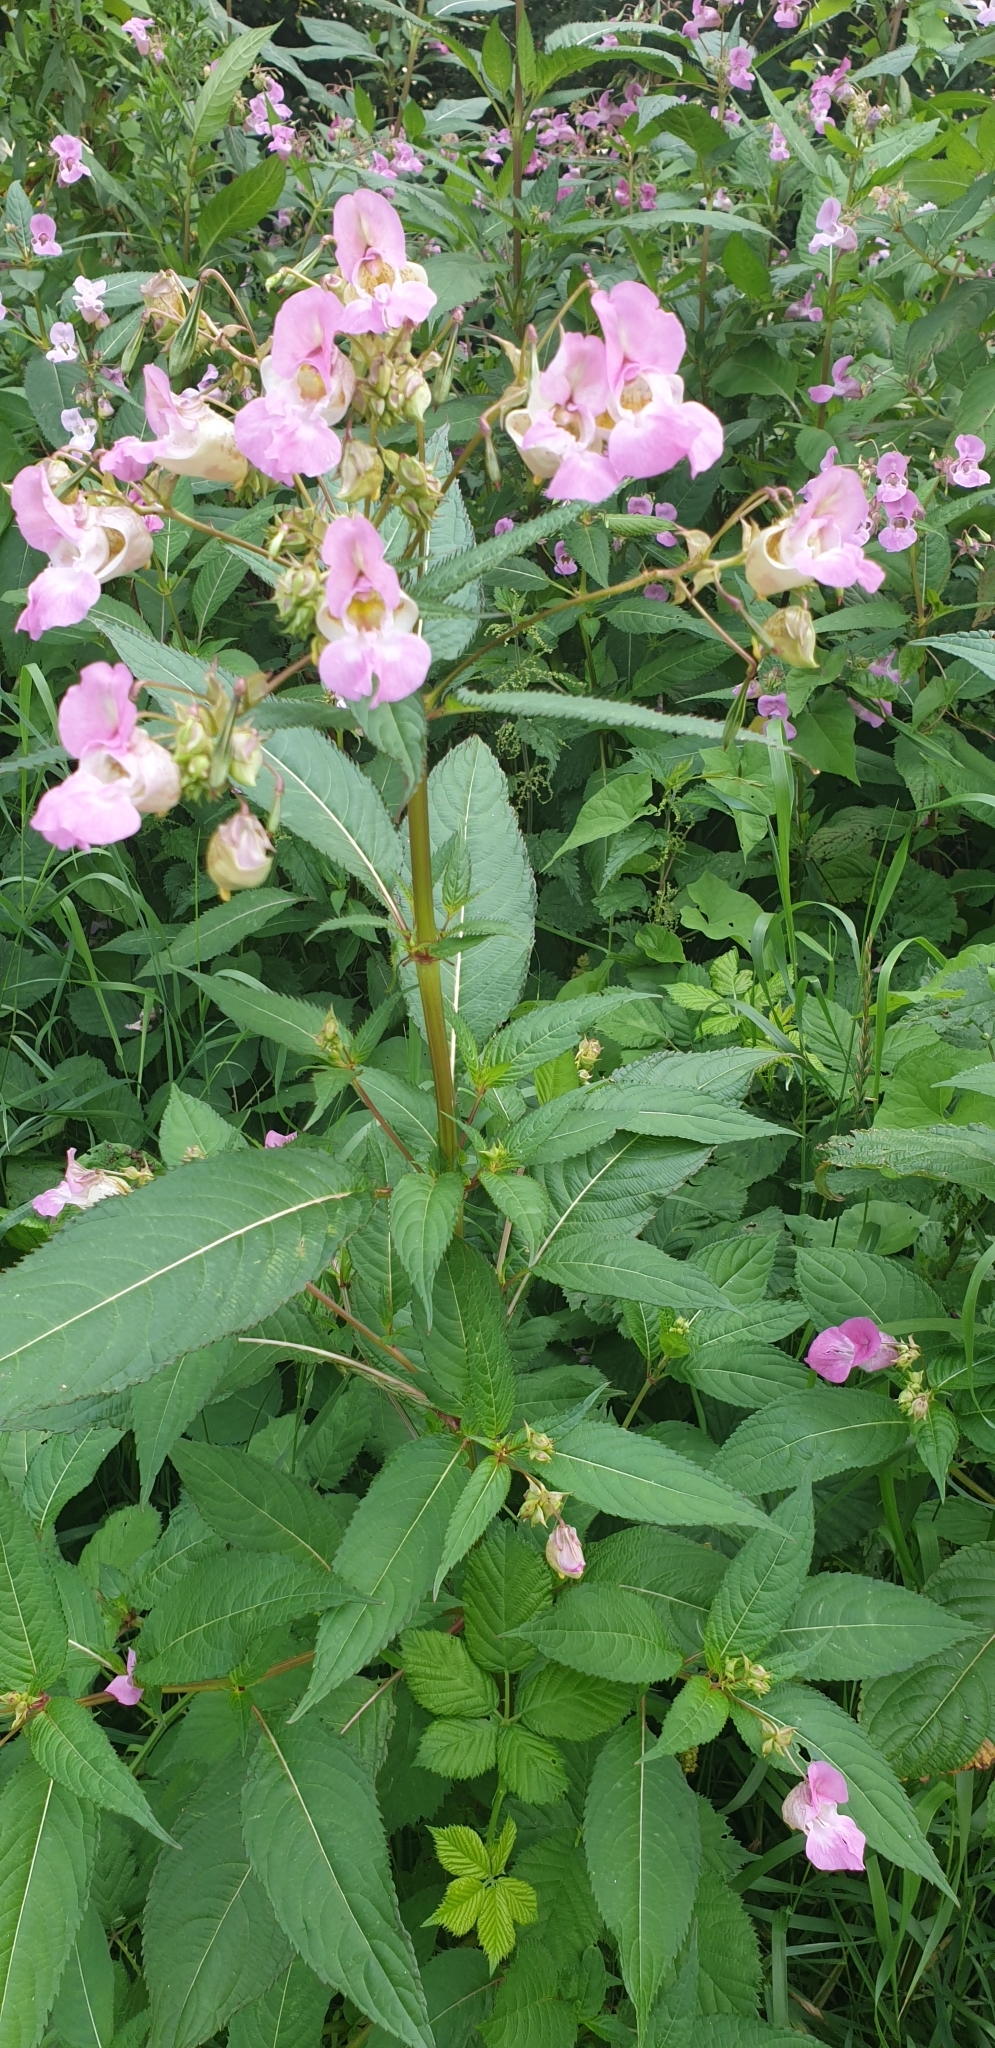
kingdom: Plantae
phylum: Tracheophyta
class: Magnoliopsida
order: Ericales
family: Balsaminaceae
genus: Impatiens
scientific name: Impatiens glandulifera
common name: Himalayan balsam
